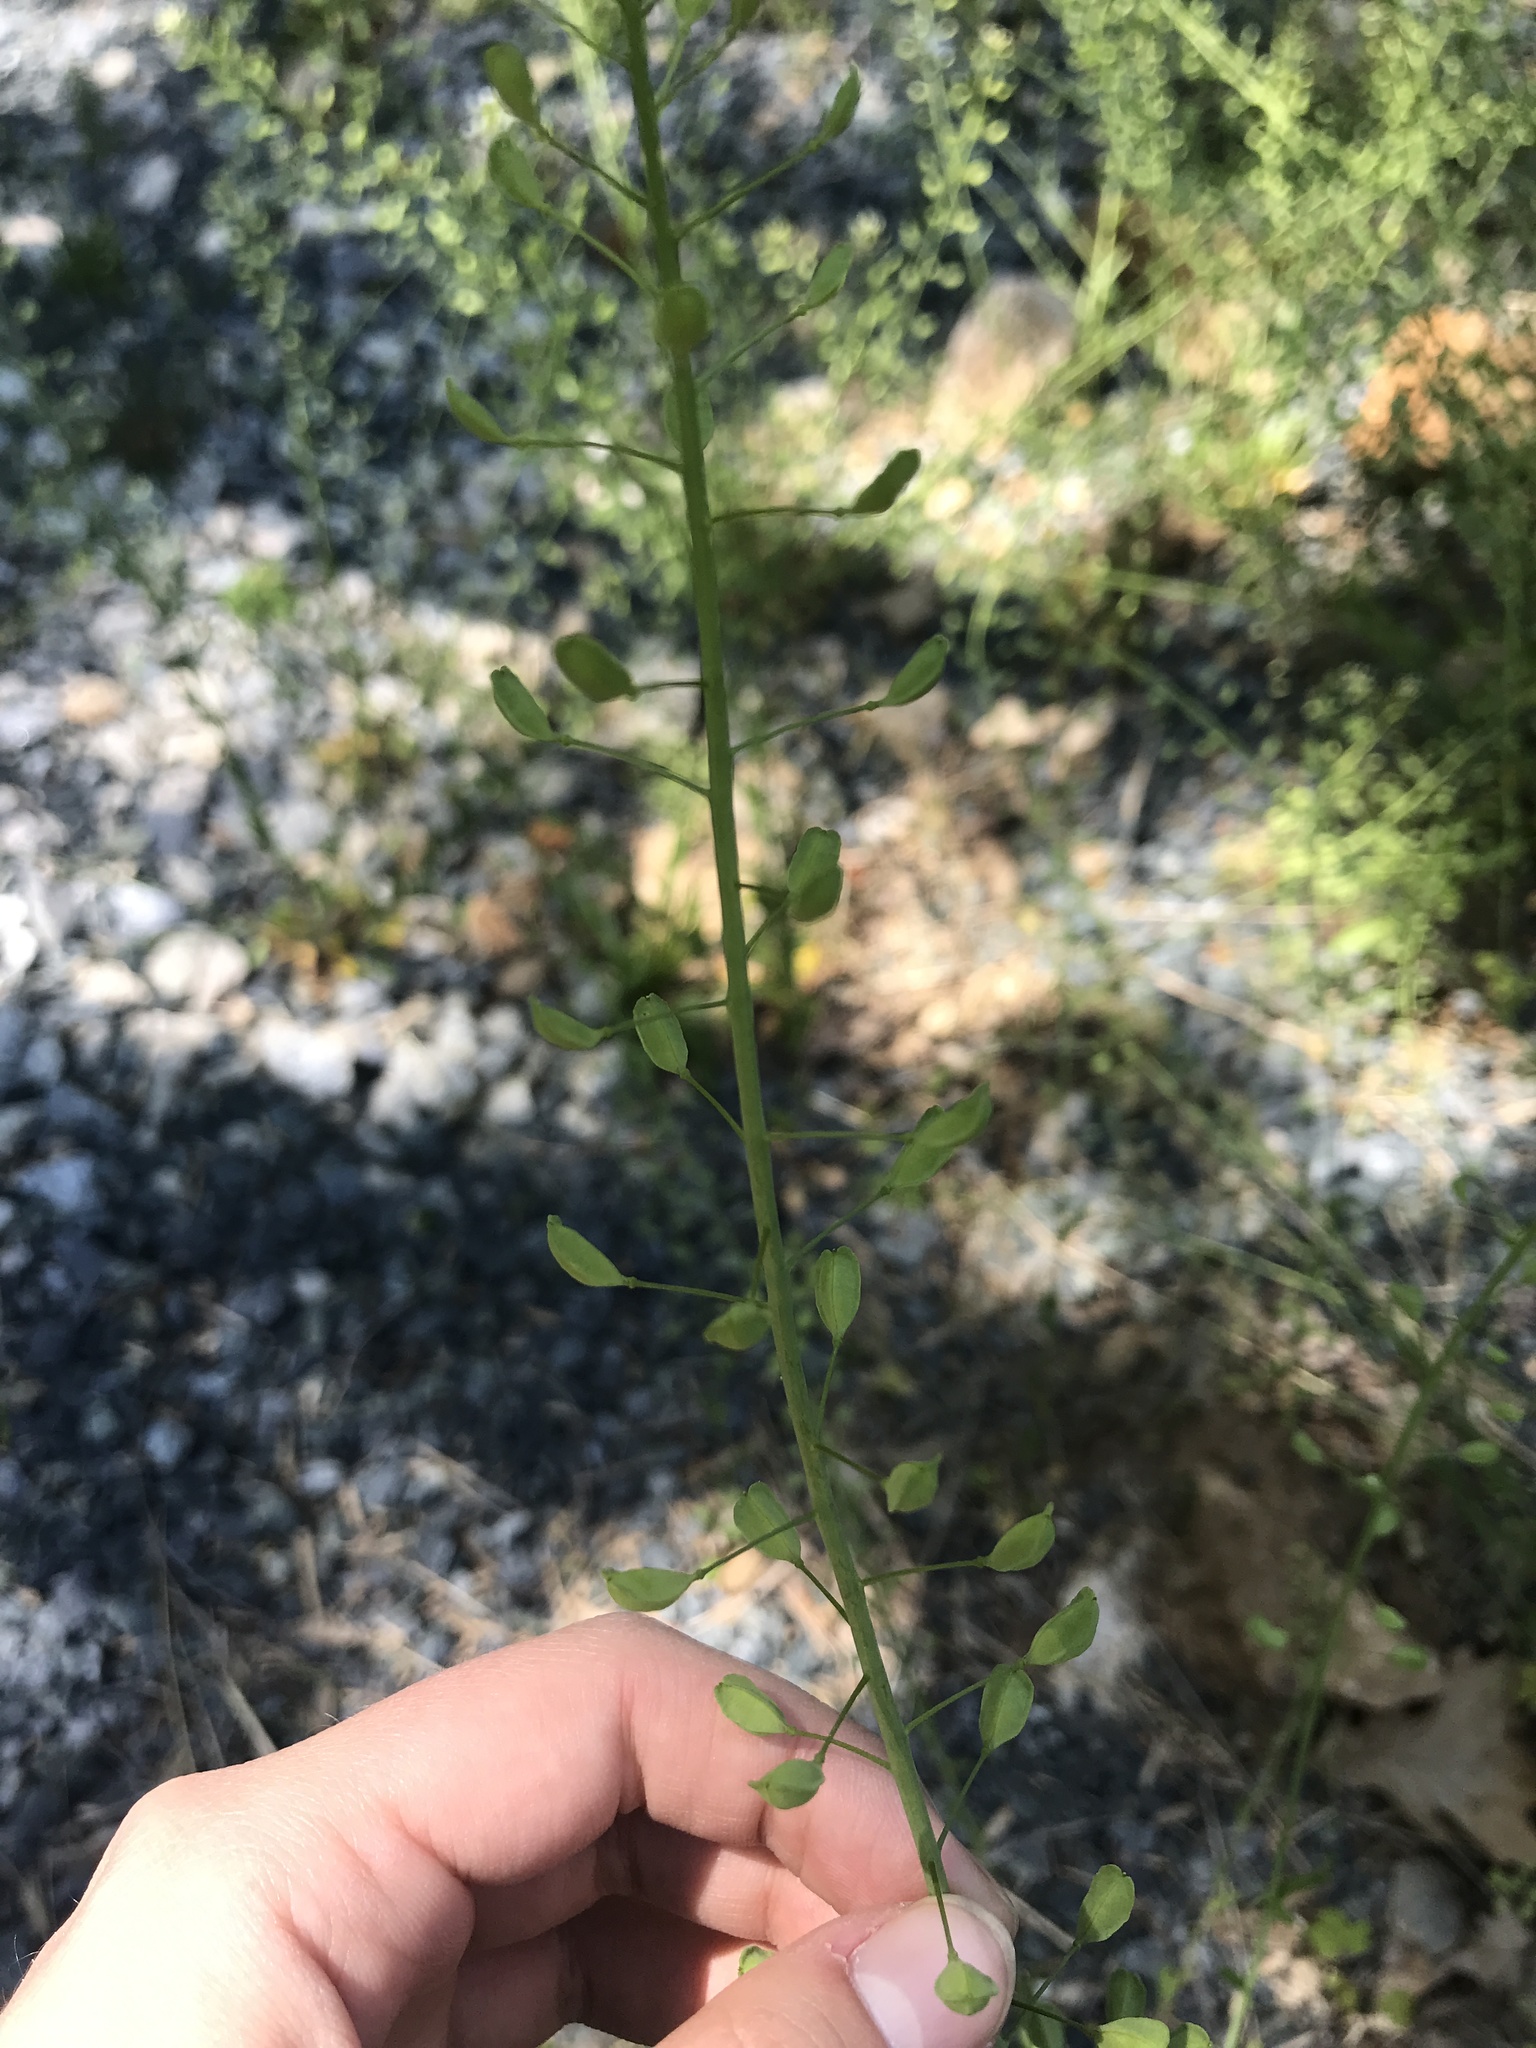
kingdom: Plantae
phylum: Tracheophyta
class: Magnoliopsida
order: Brassicales
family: Brassicaceae
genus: Mummenhoffia
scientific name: Mummenhoffia alliacea
